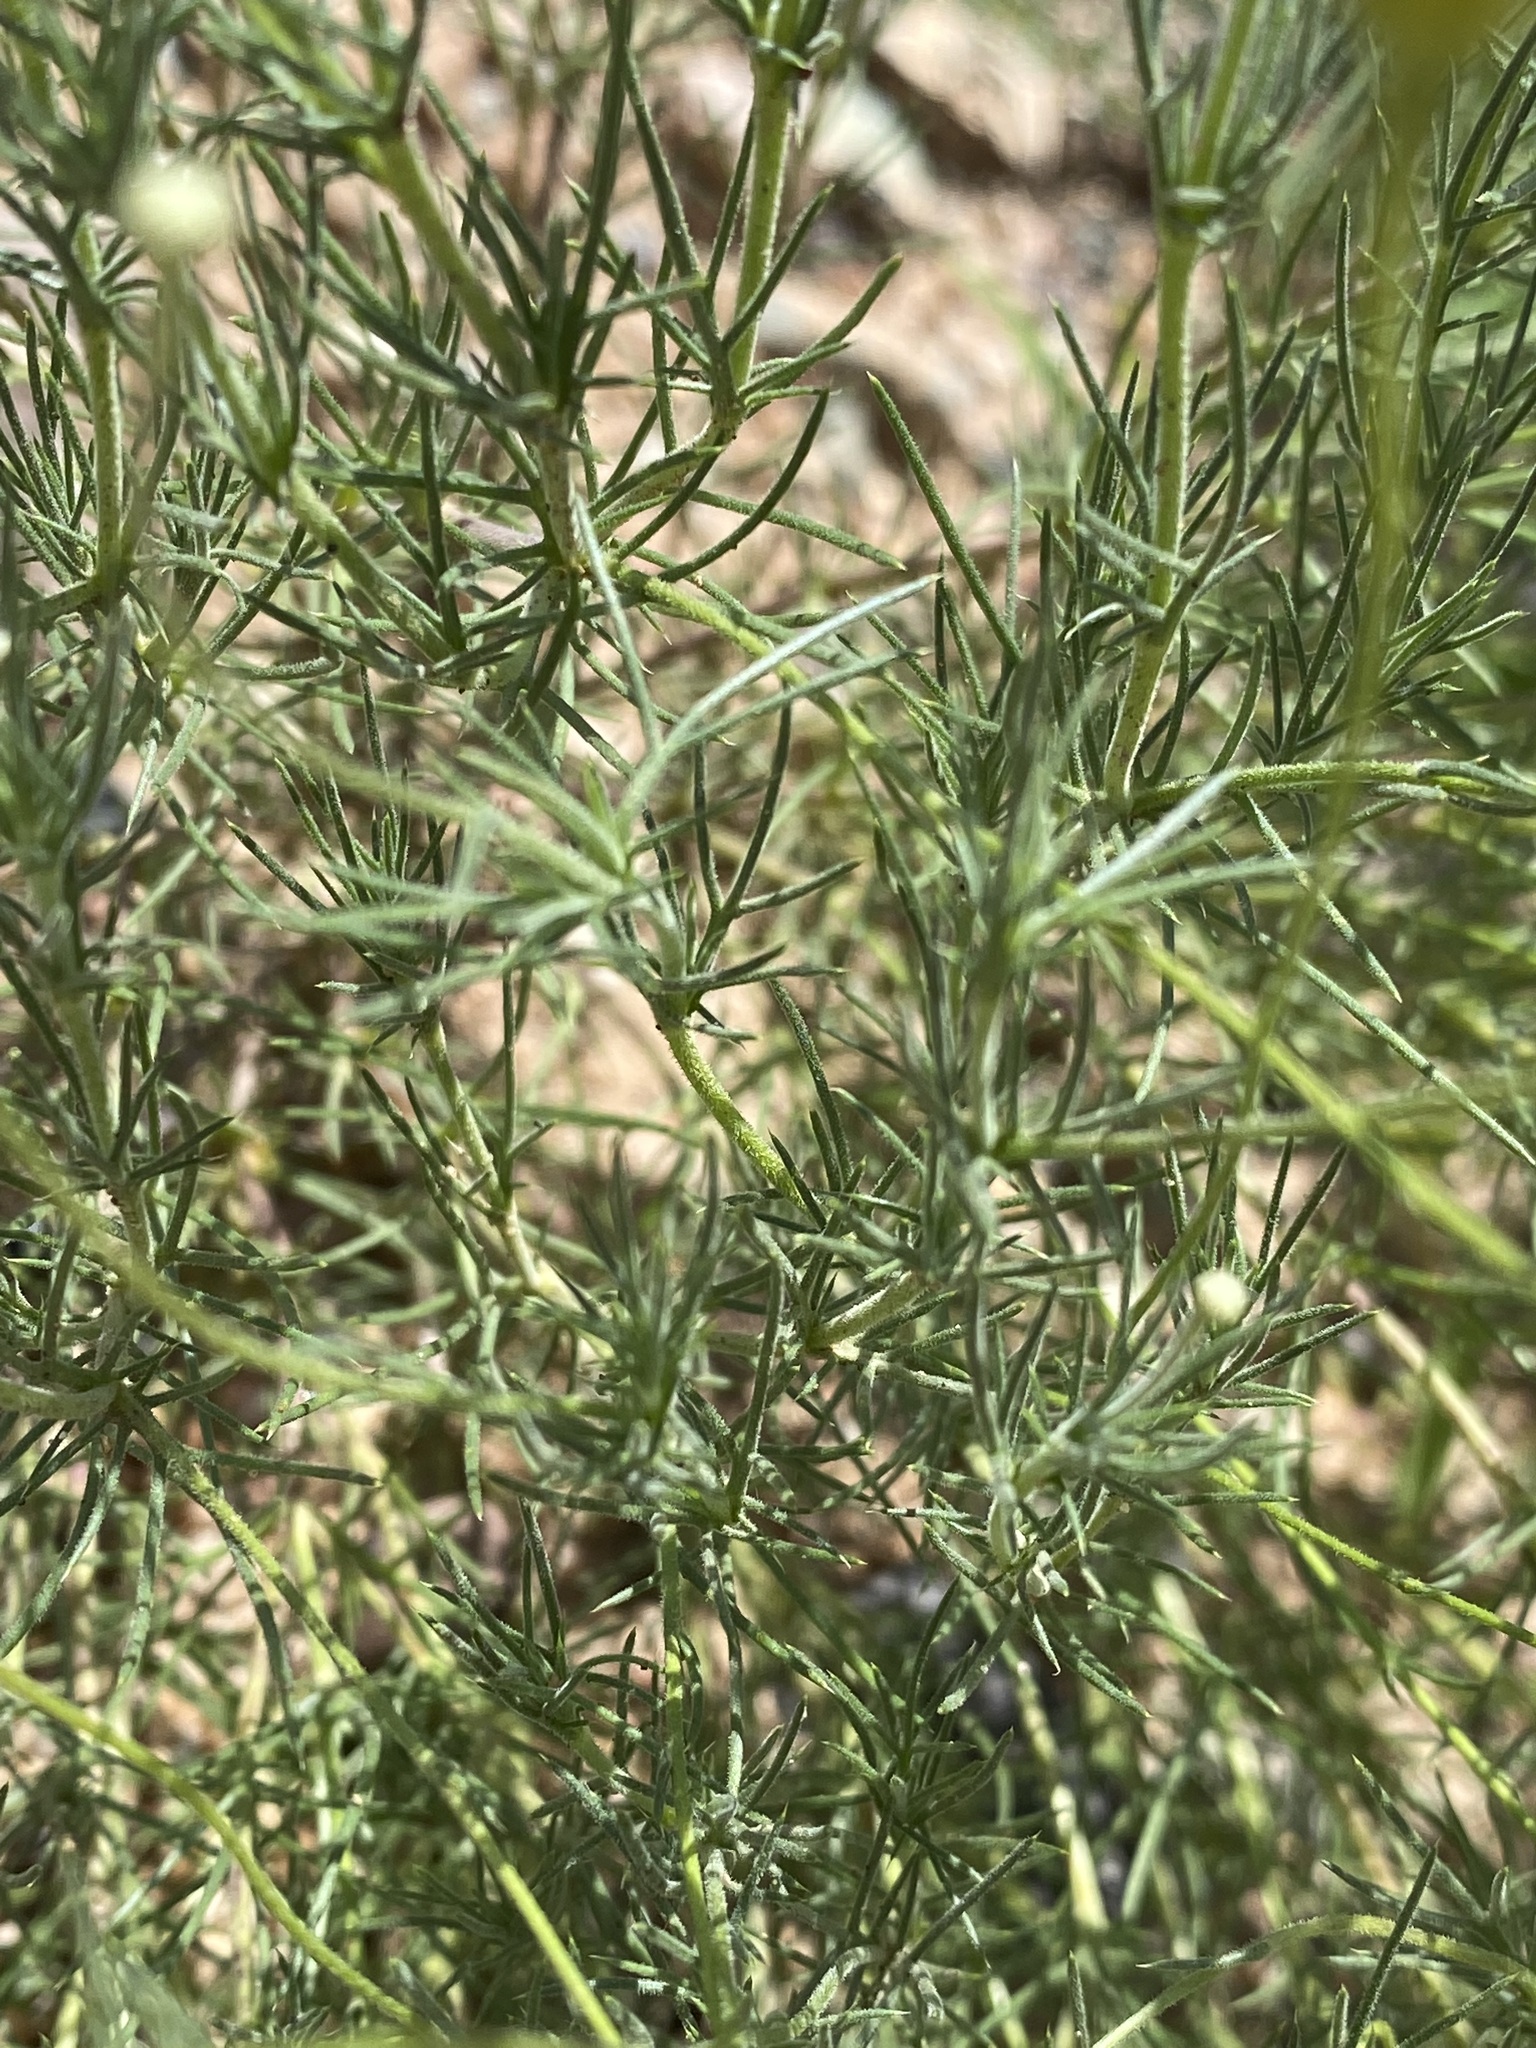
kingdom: Plantae
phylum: Tracheophyta
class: Magnoliopsida
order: Asterales
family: Asteraceae
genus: Thymophylla
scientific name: Thymophylla pentachaeta
